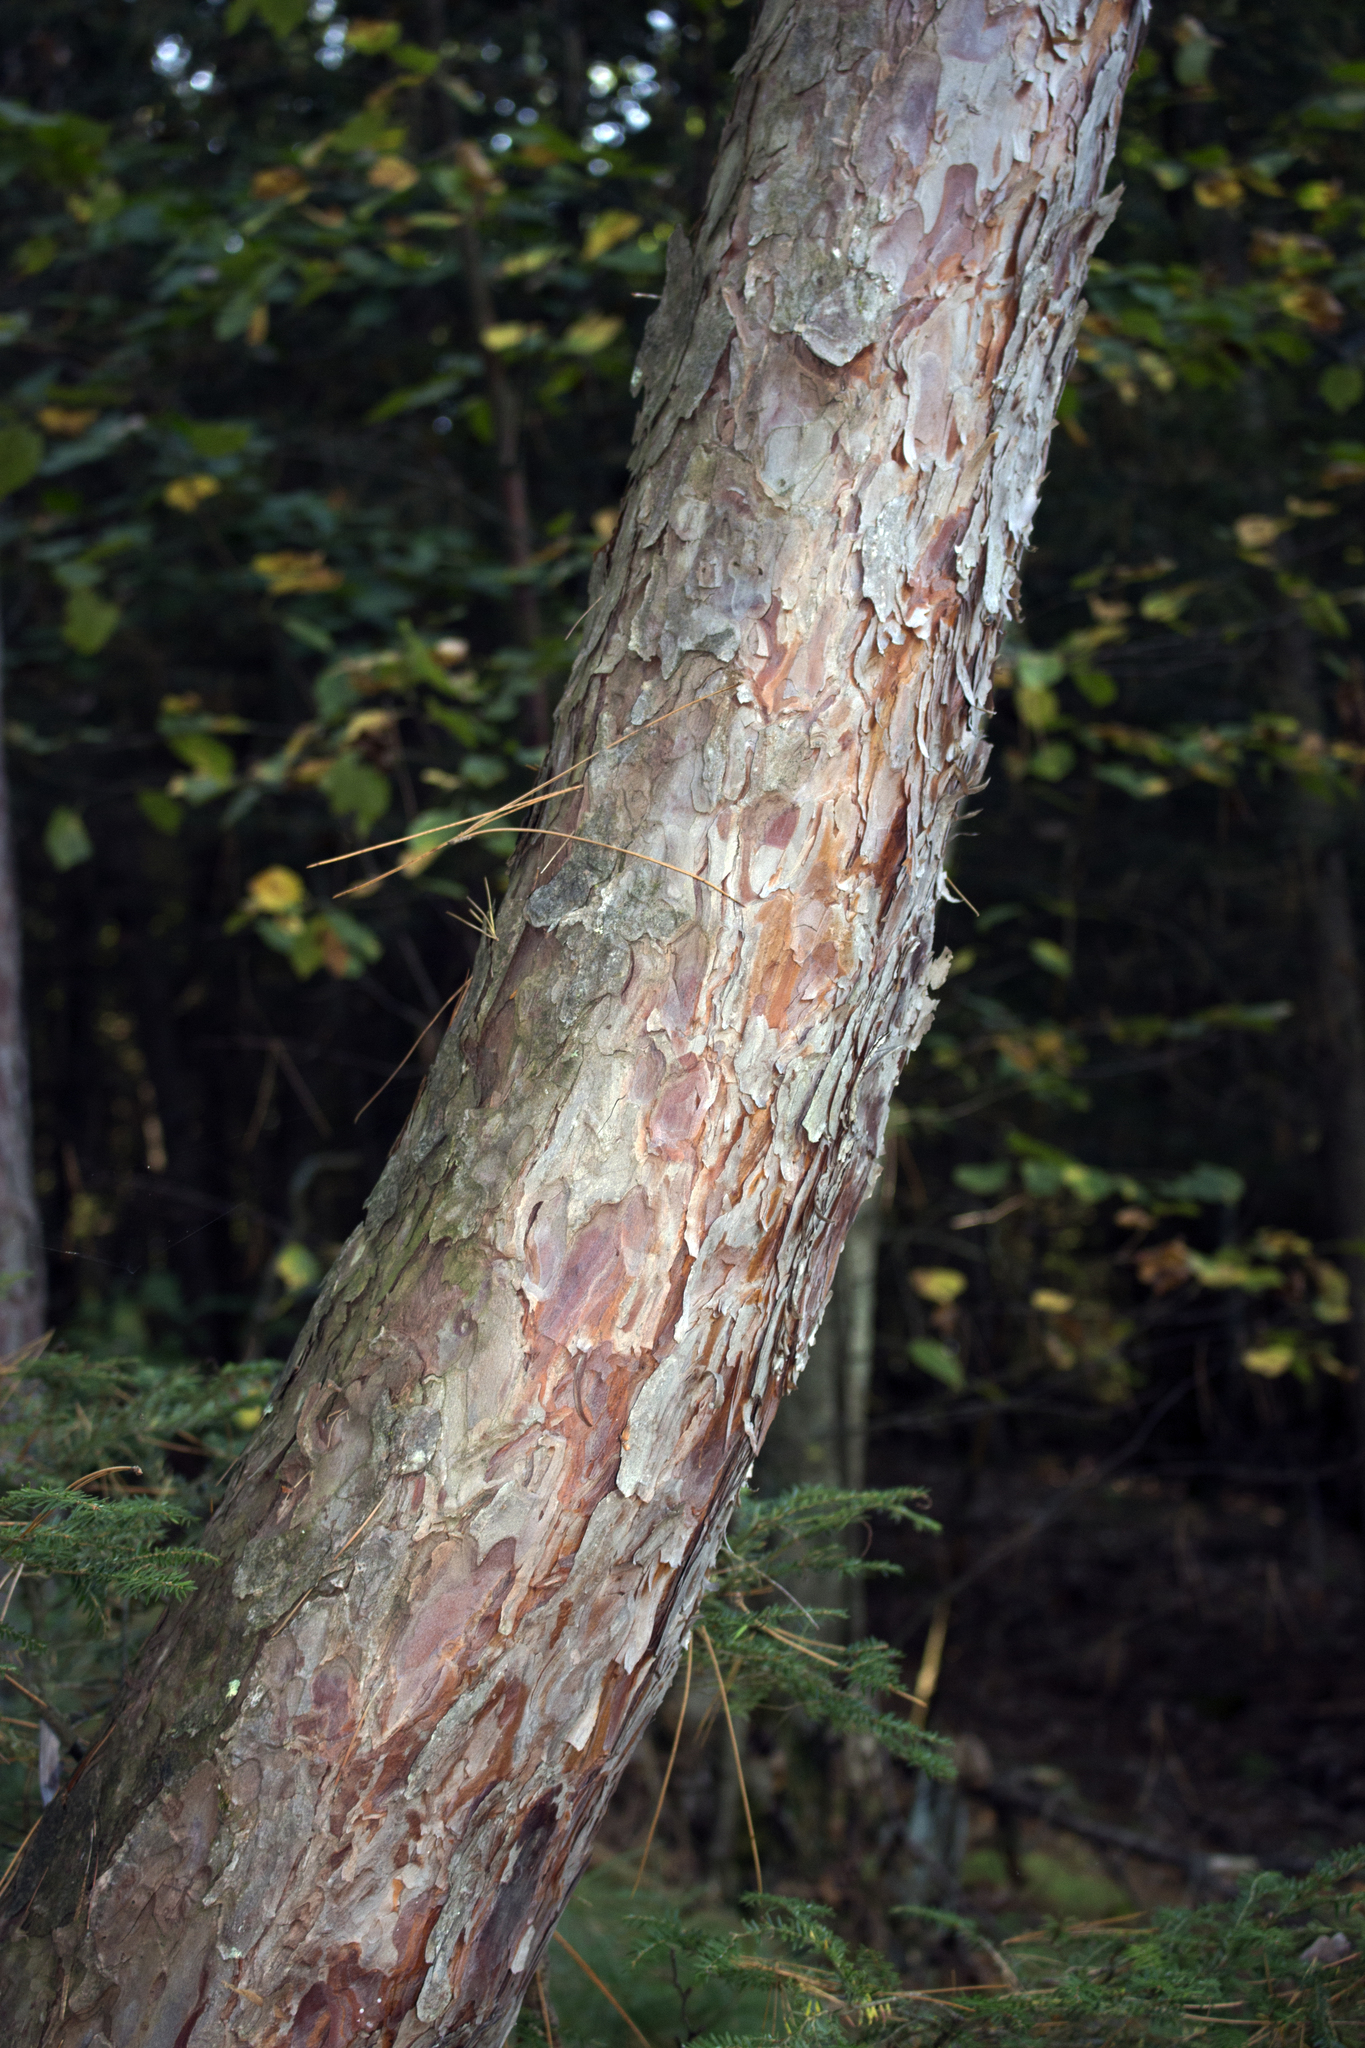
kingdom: Plantae
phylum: Tracheophyta
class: Pinopsida
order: Pinales
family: Pinaceae
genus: Pinus
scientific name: Pinus resinosa
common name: Norway pine
